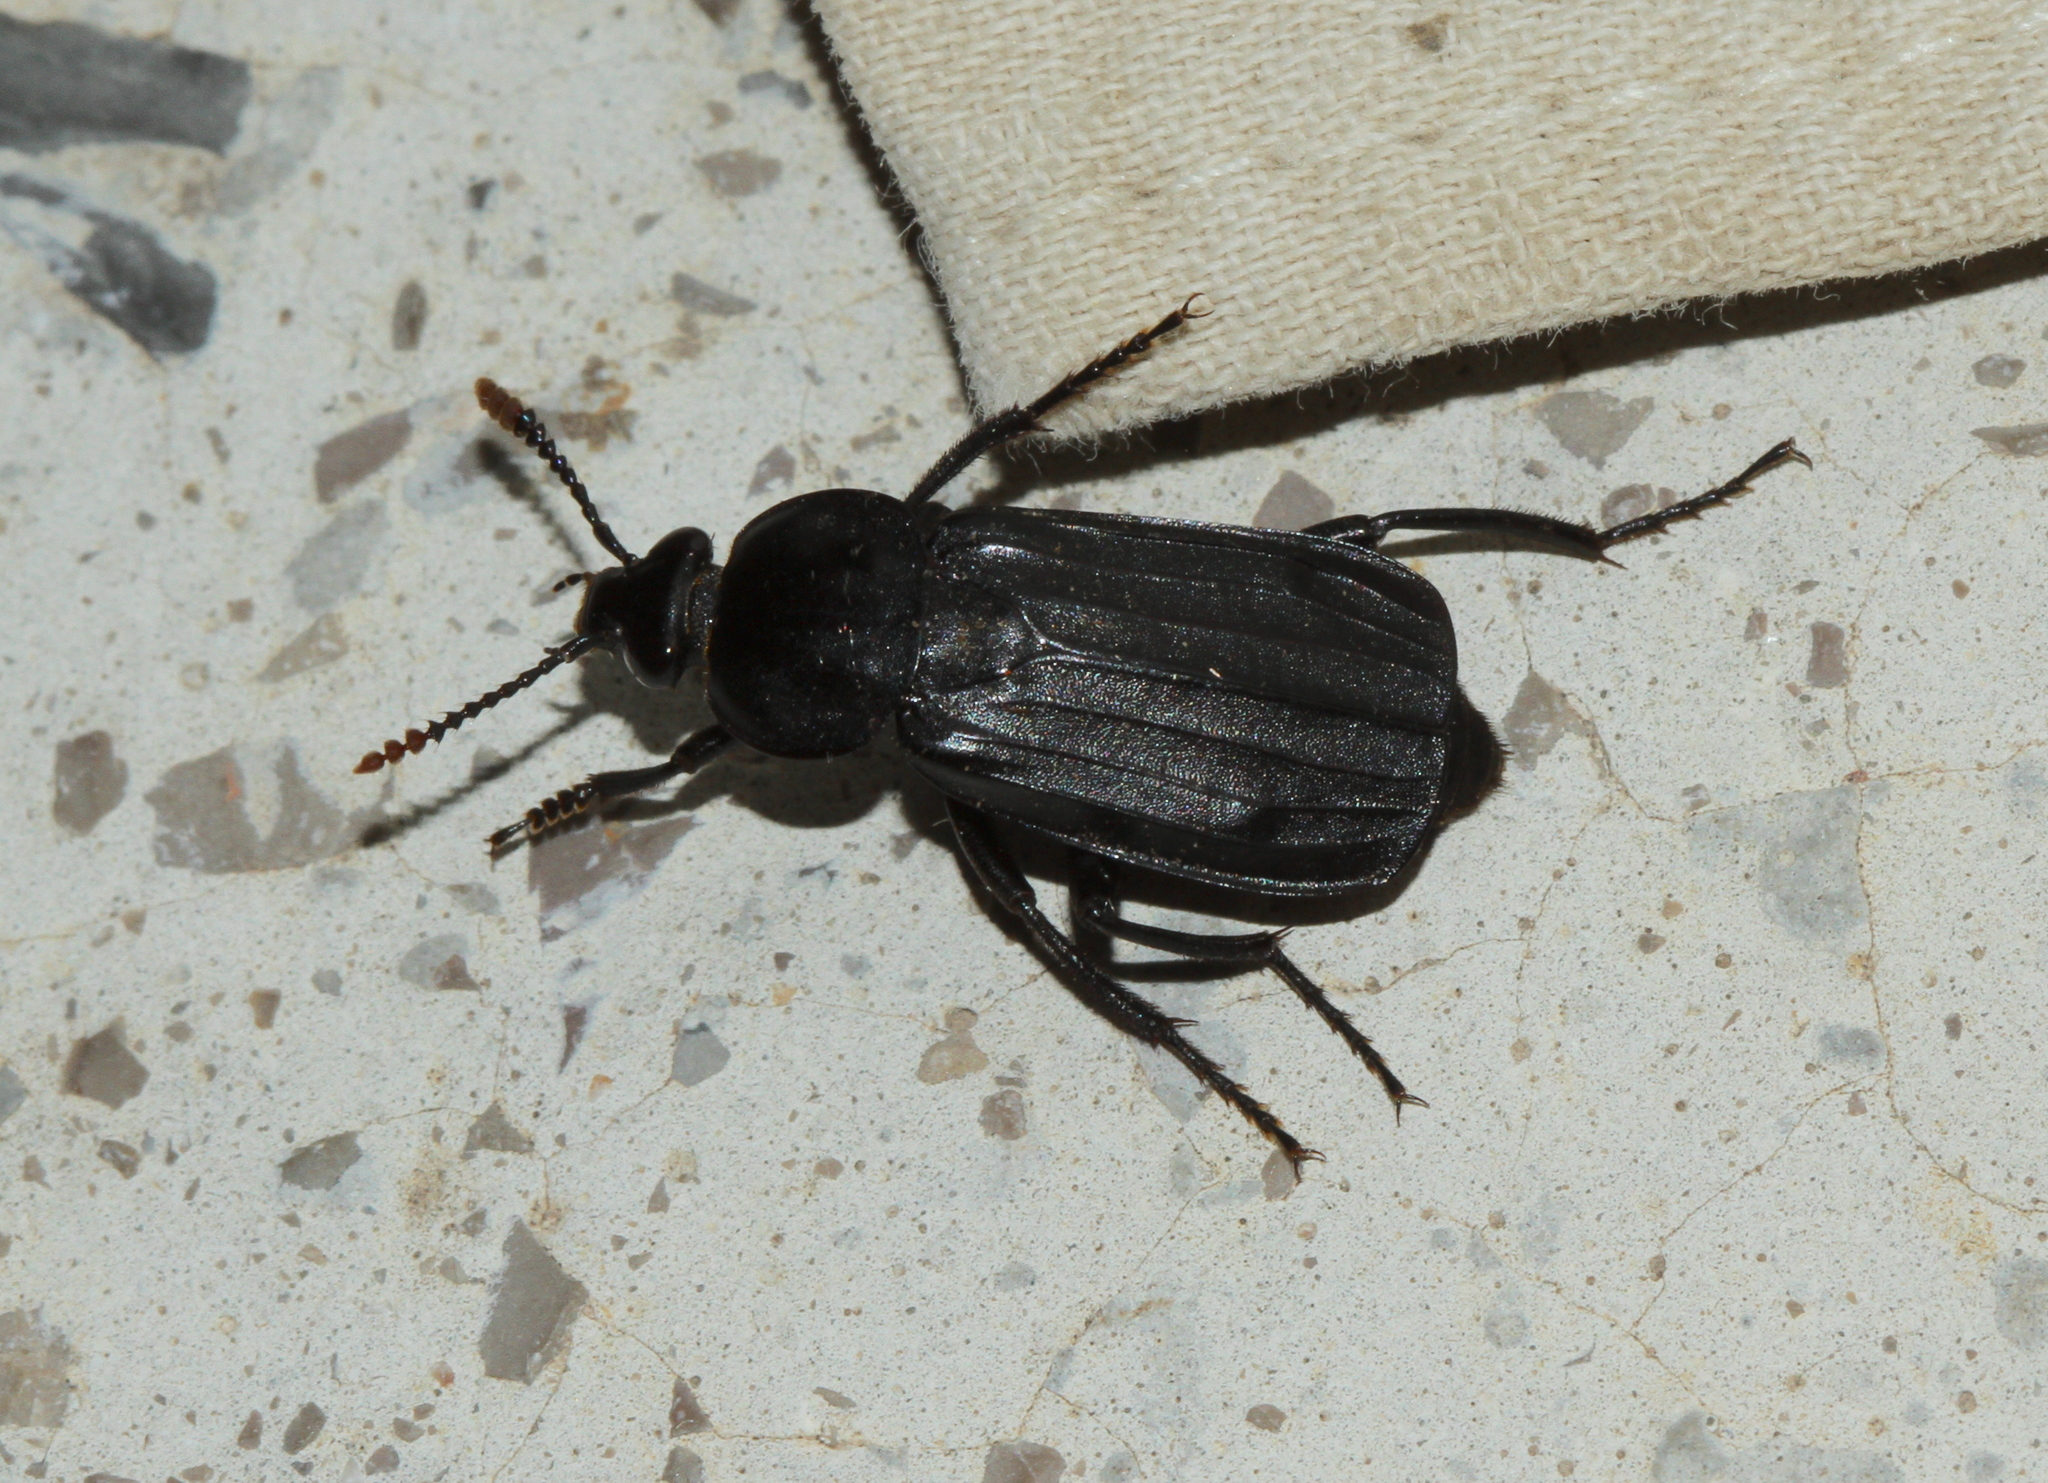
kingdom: Animalia
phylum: Arthropoda
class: Insecta
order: Coleoptera
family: Staphylinidae
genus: Necrodes
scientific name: Necrodes littoralis
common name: Shore sexton beetle
